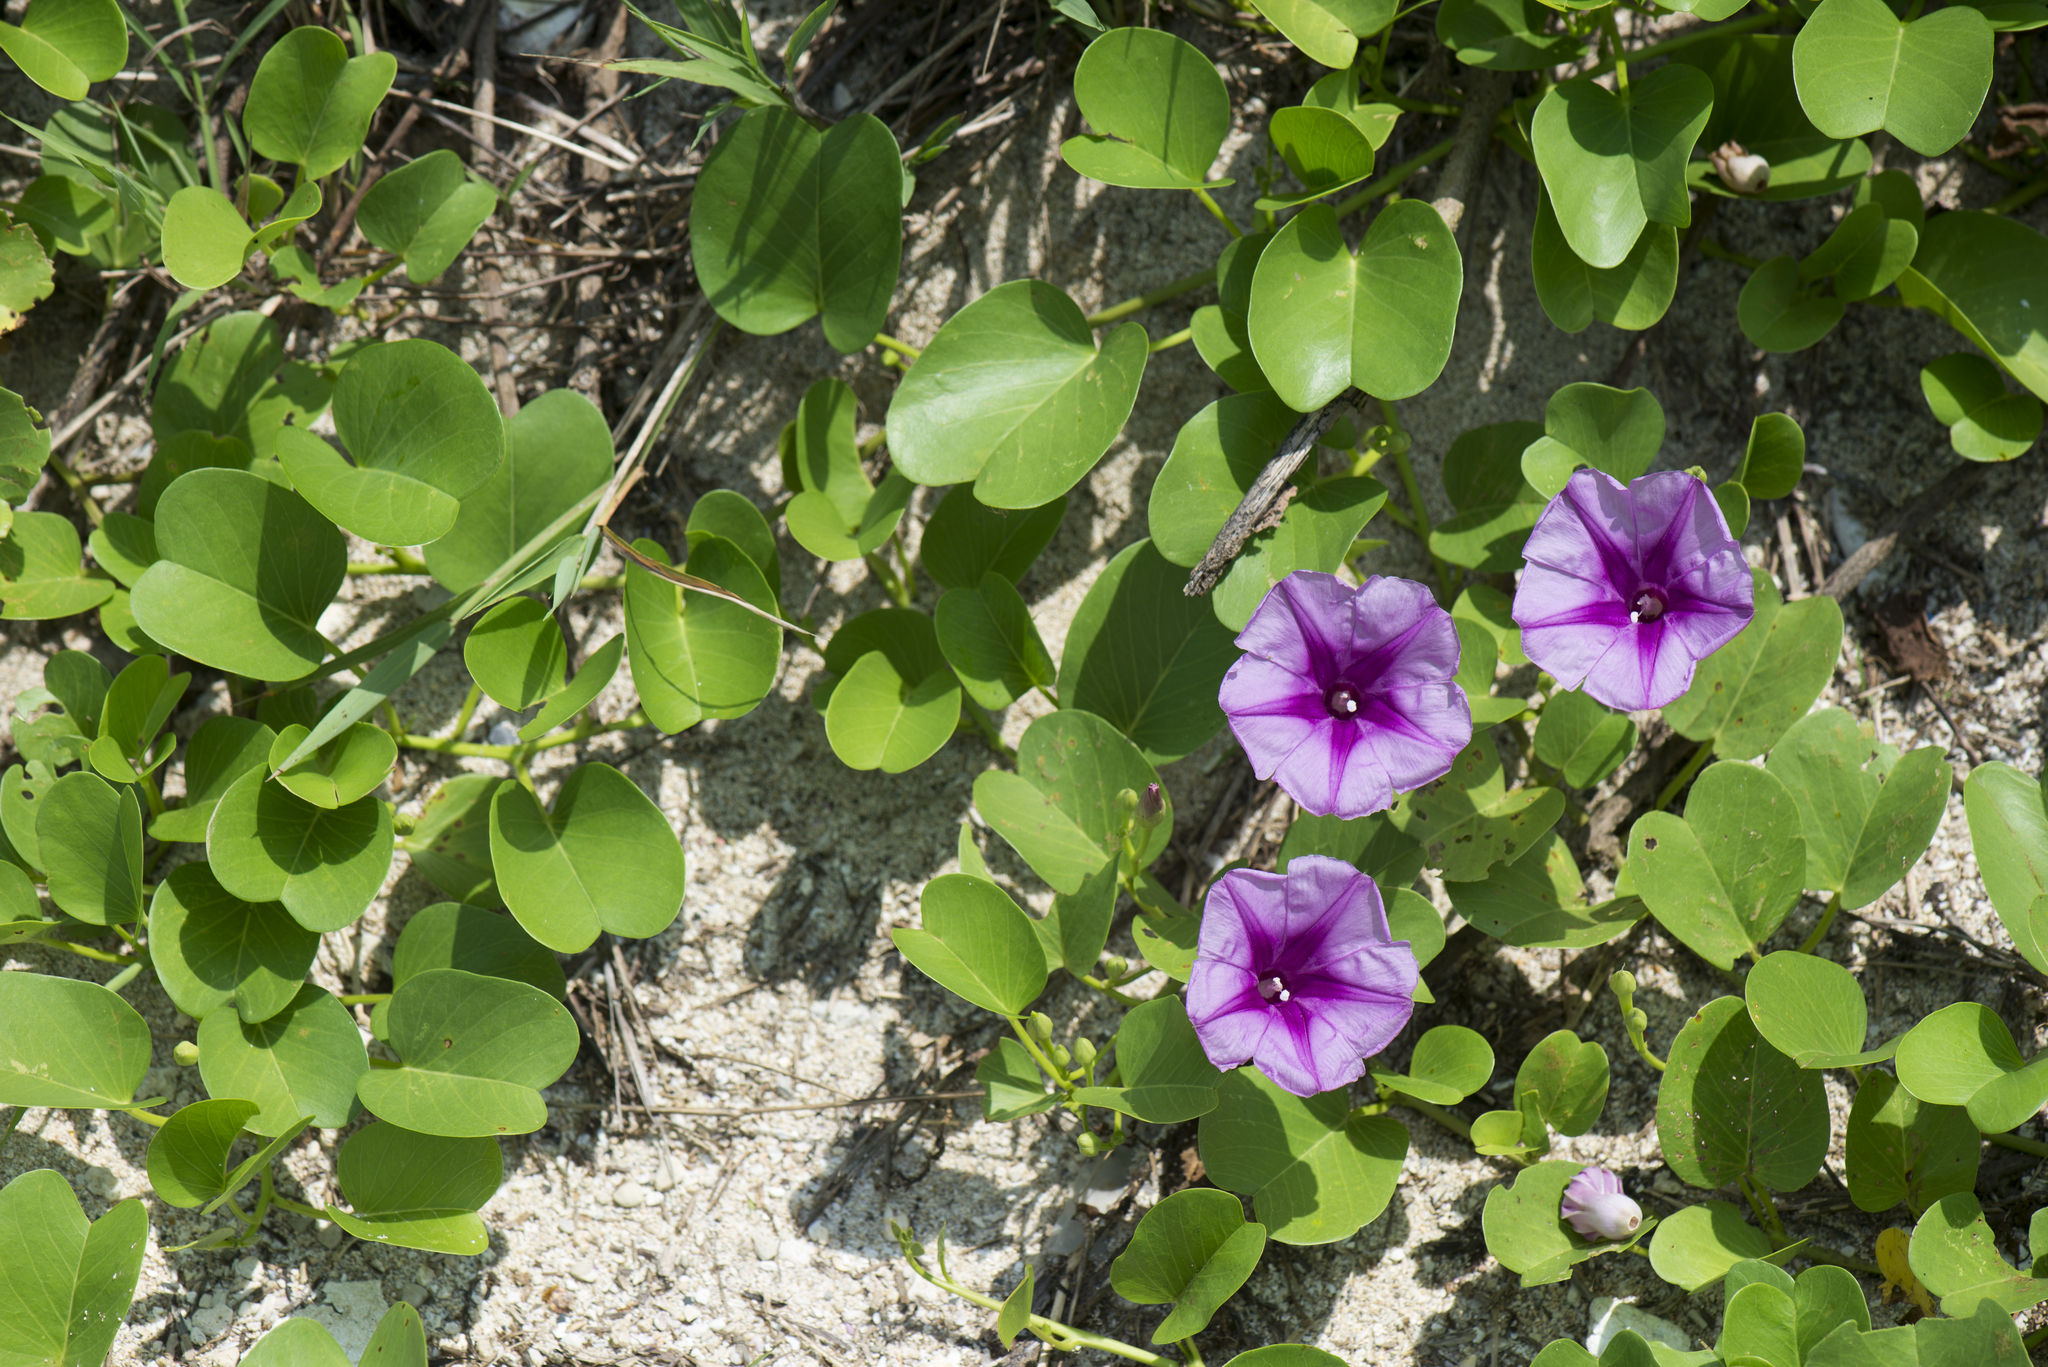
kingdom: Plantae
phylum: Tracheophyta
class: Magnoliopsida
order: Solanales
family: Convolvulaceae
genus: Ipomoea
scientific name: Ipomoea pes-caprae
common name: Beach morning glory
